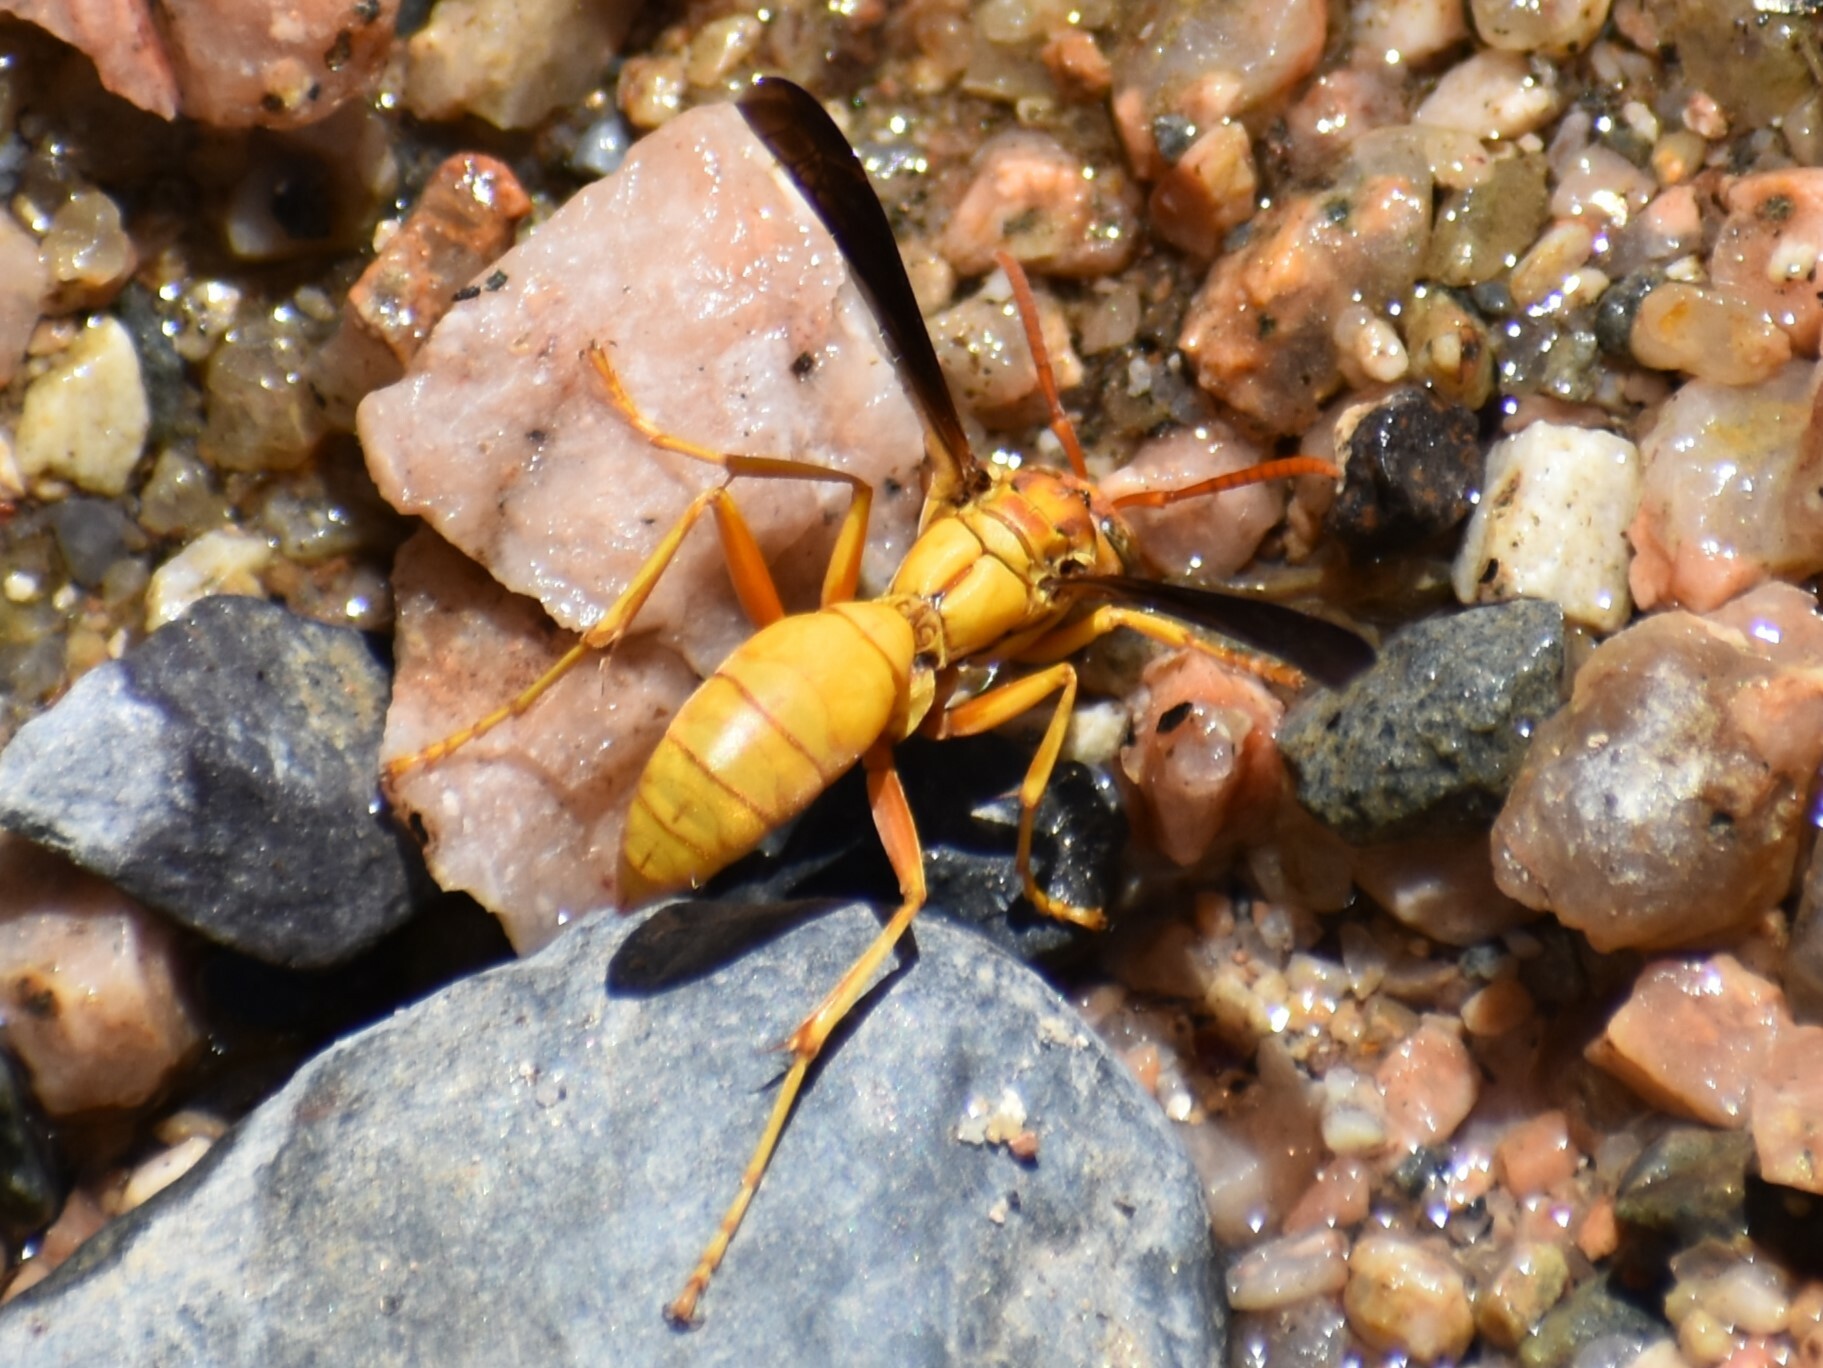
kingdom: Animalia
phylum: Arthropoda
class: Insecta
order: Hymenoptera
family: Eumenidae
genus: Polistes
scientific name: Polistes flavus
